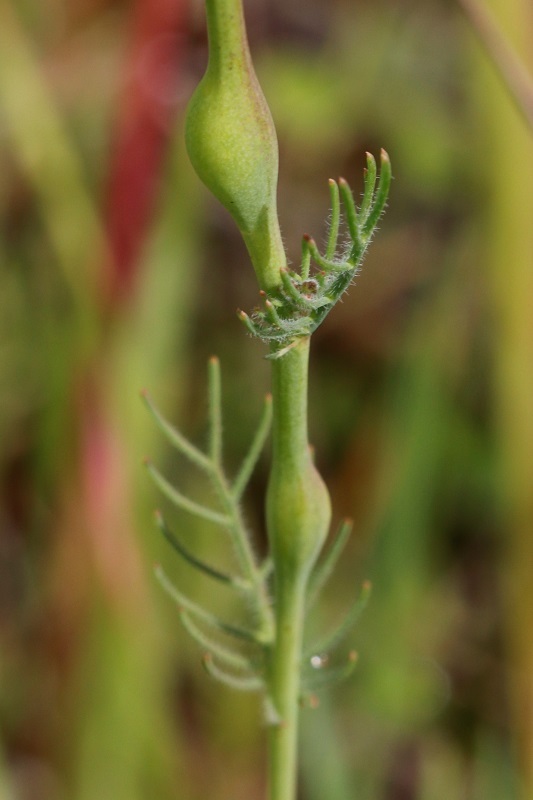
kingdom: Plantae
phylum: Tracheophyta
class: Magnoliopsida
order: Brassicales
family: Brassicaceae
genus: Heliophila
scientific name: Heliophila digitata
